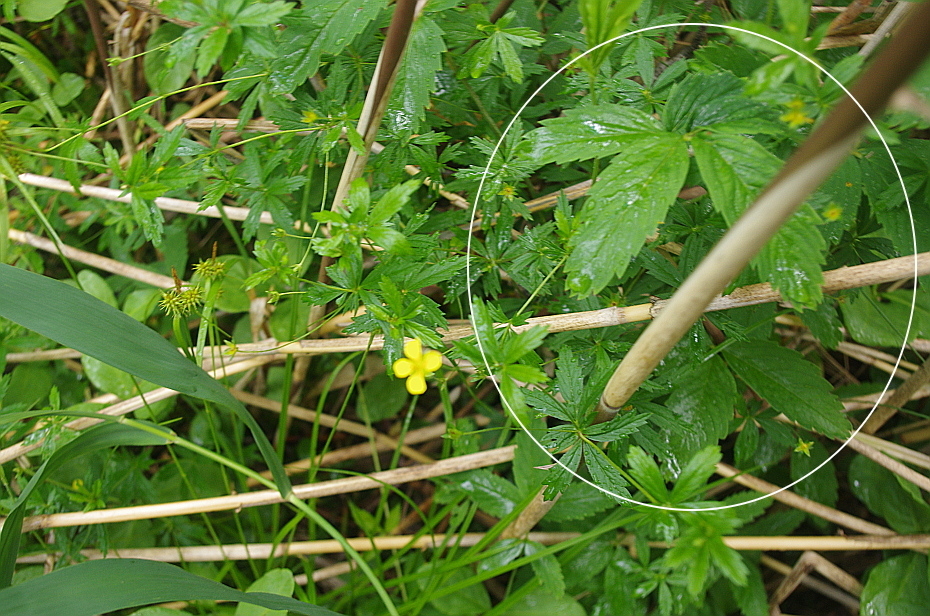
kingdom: Plantae
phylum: Tracheophyta
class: Magnoliopsida
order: Rosales
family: Rosaceae
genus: Comarum
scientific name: Comarum palustre
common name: Marsh cinquefoil
